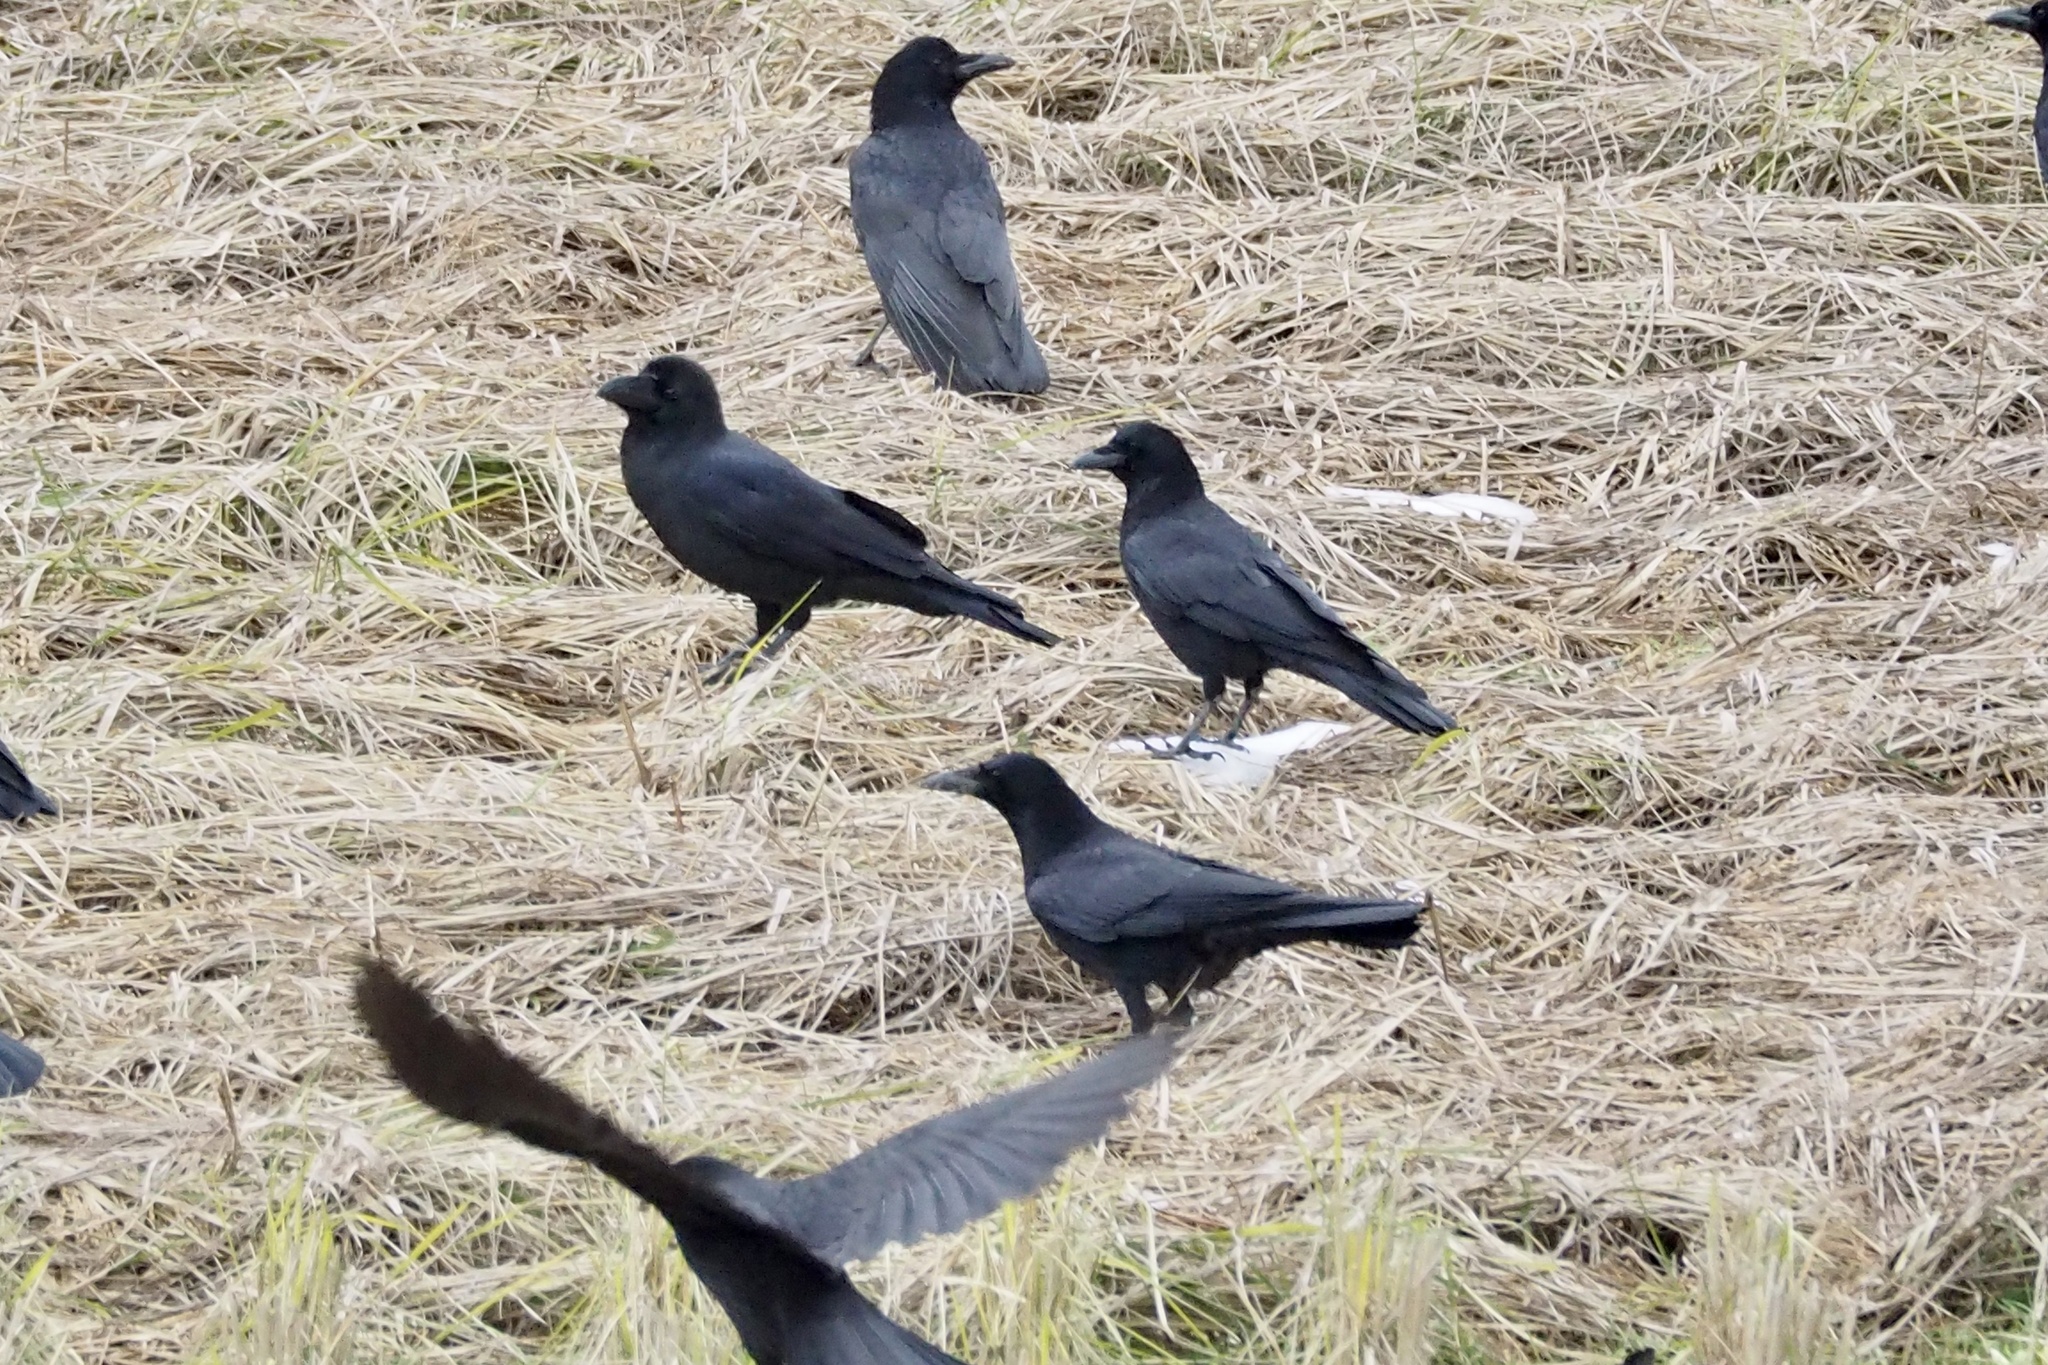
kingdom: Animalia
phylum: Chordata
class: Aves
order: Passeriformes
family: Corvidae
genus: Corvus
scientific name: Corvus corone
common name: Carrion crow
